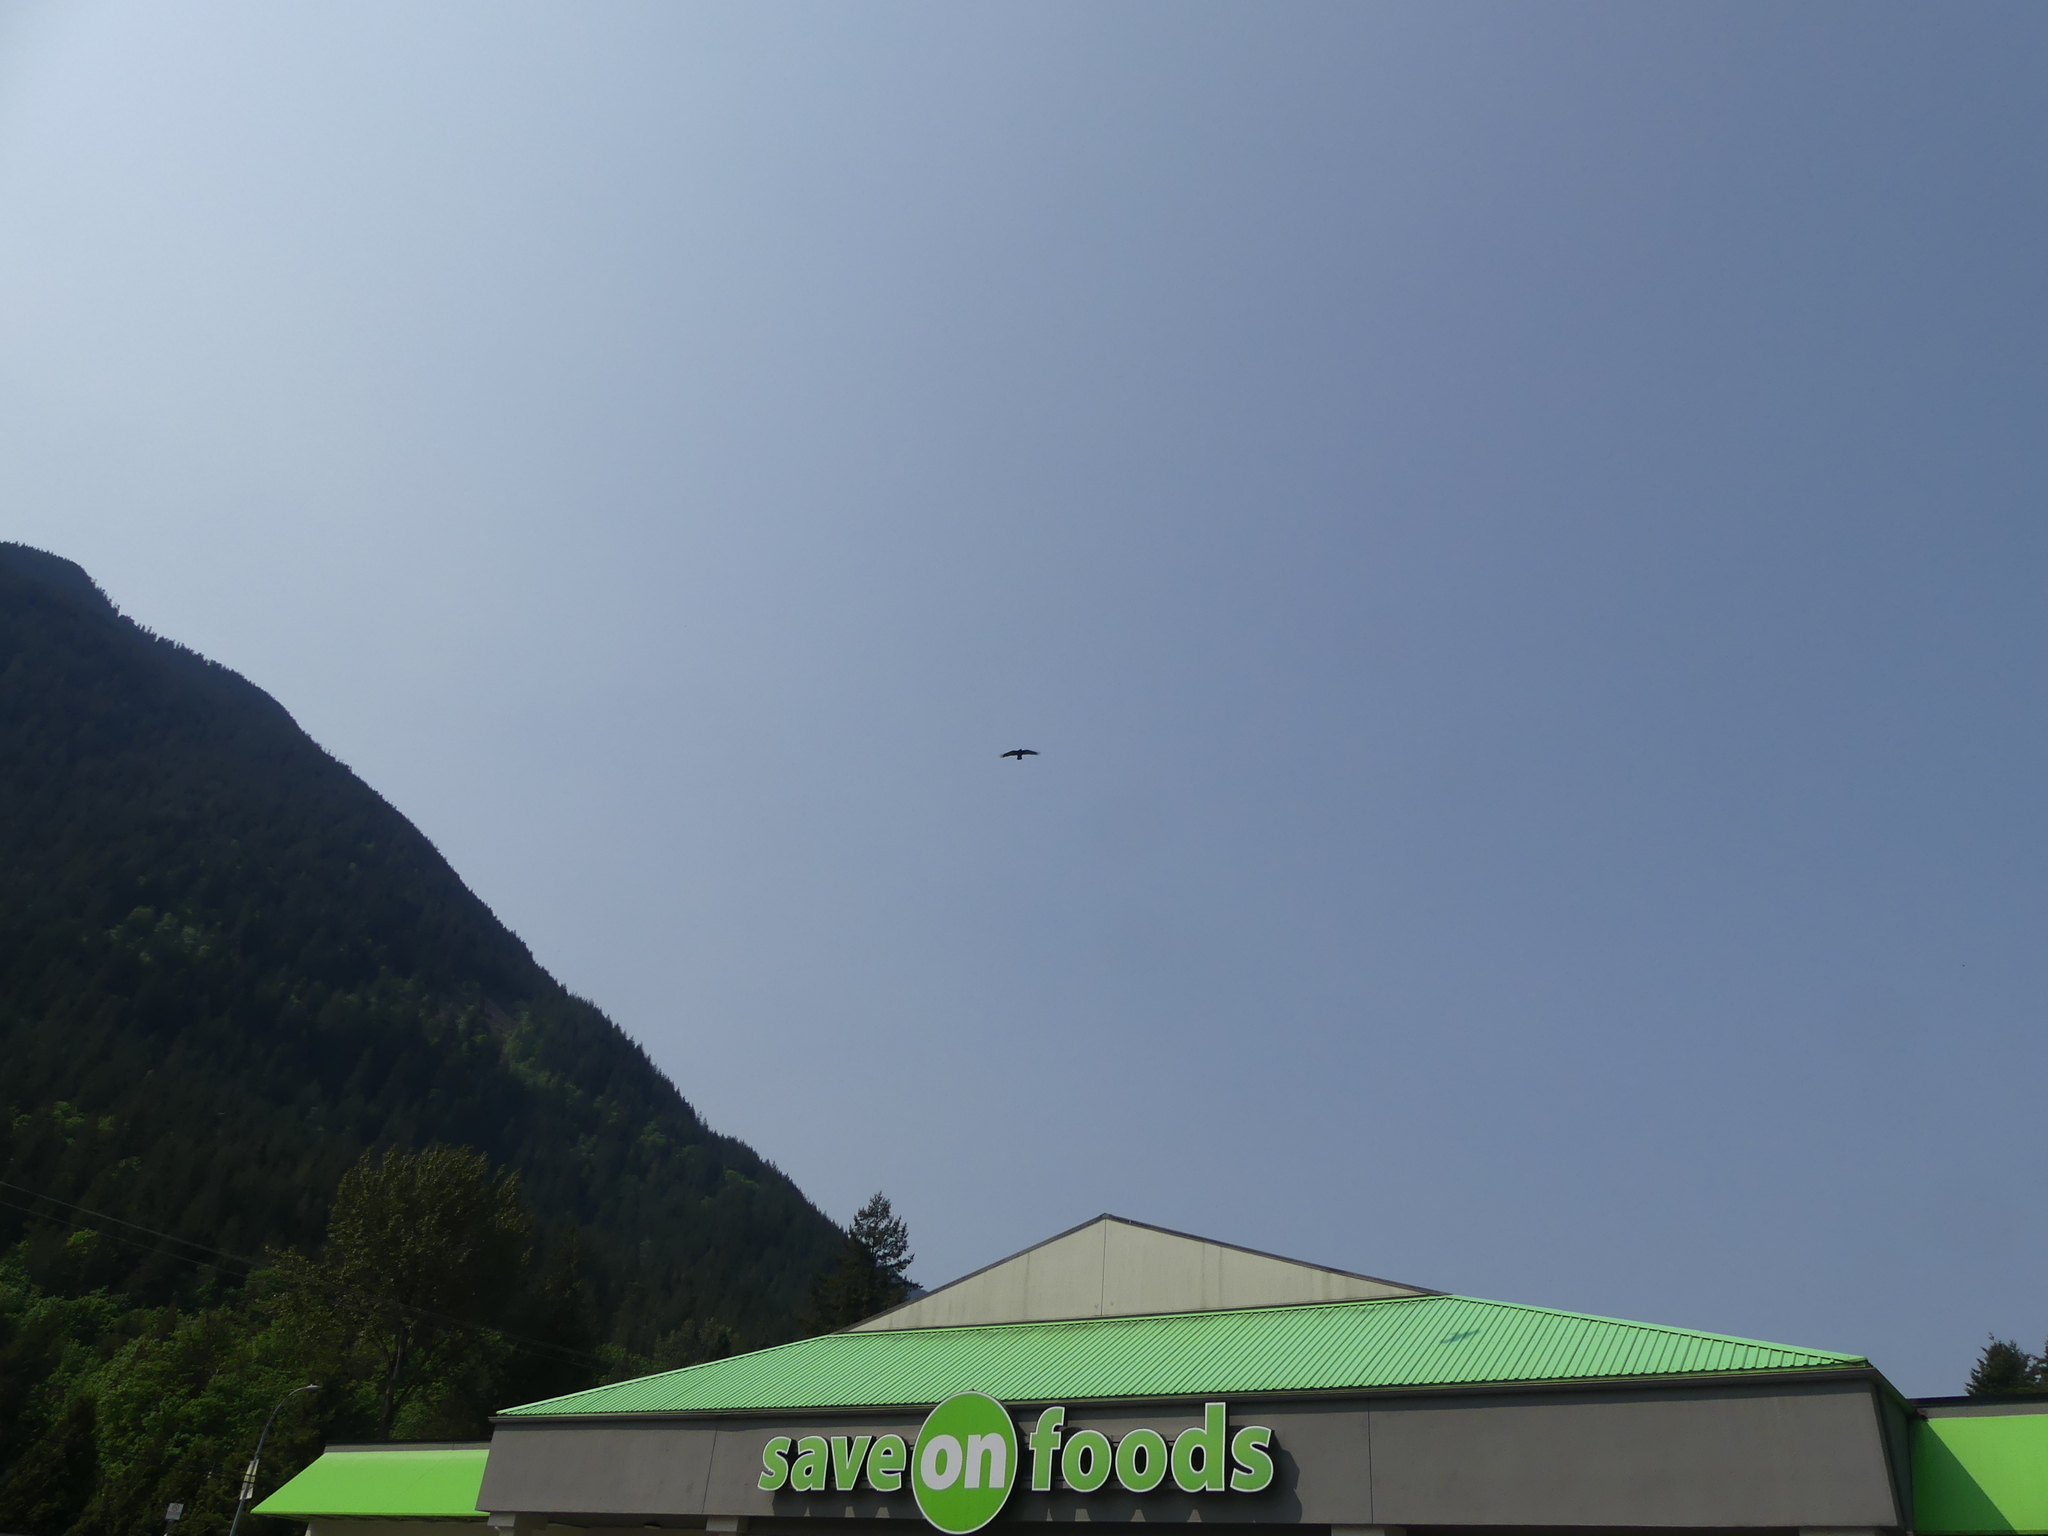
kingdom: Animalia
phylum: Chordata
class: Aves
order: Passeriformes
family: Corvidae
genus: Corvus
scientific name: Corvus corax
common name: Common raven
